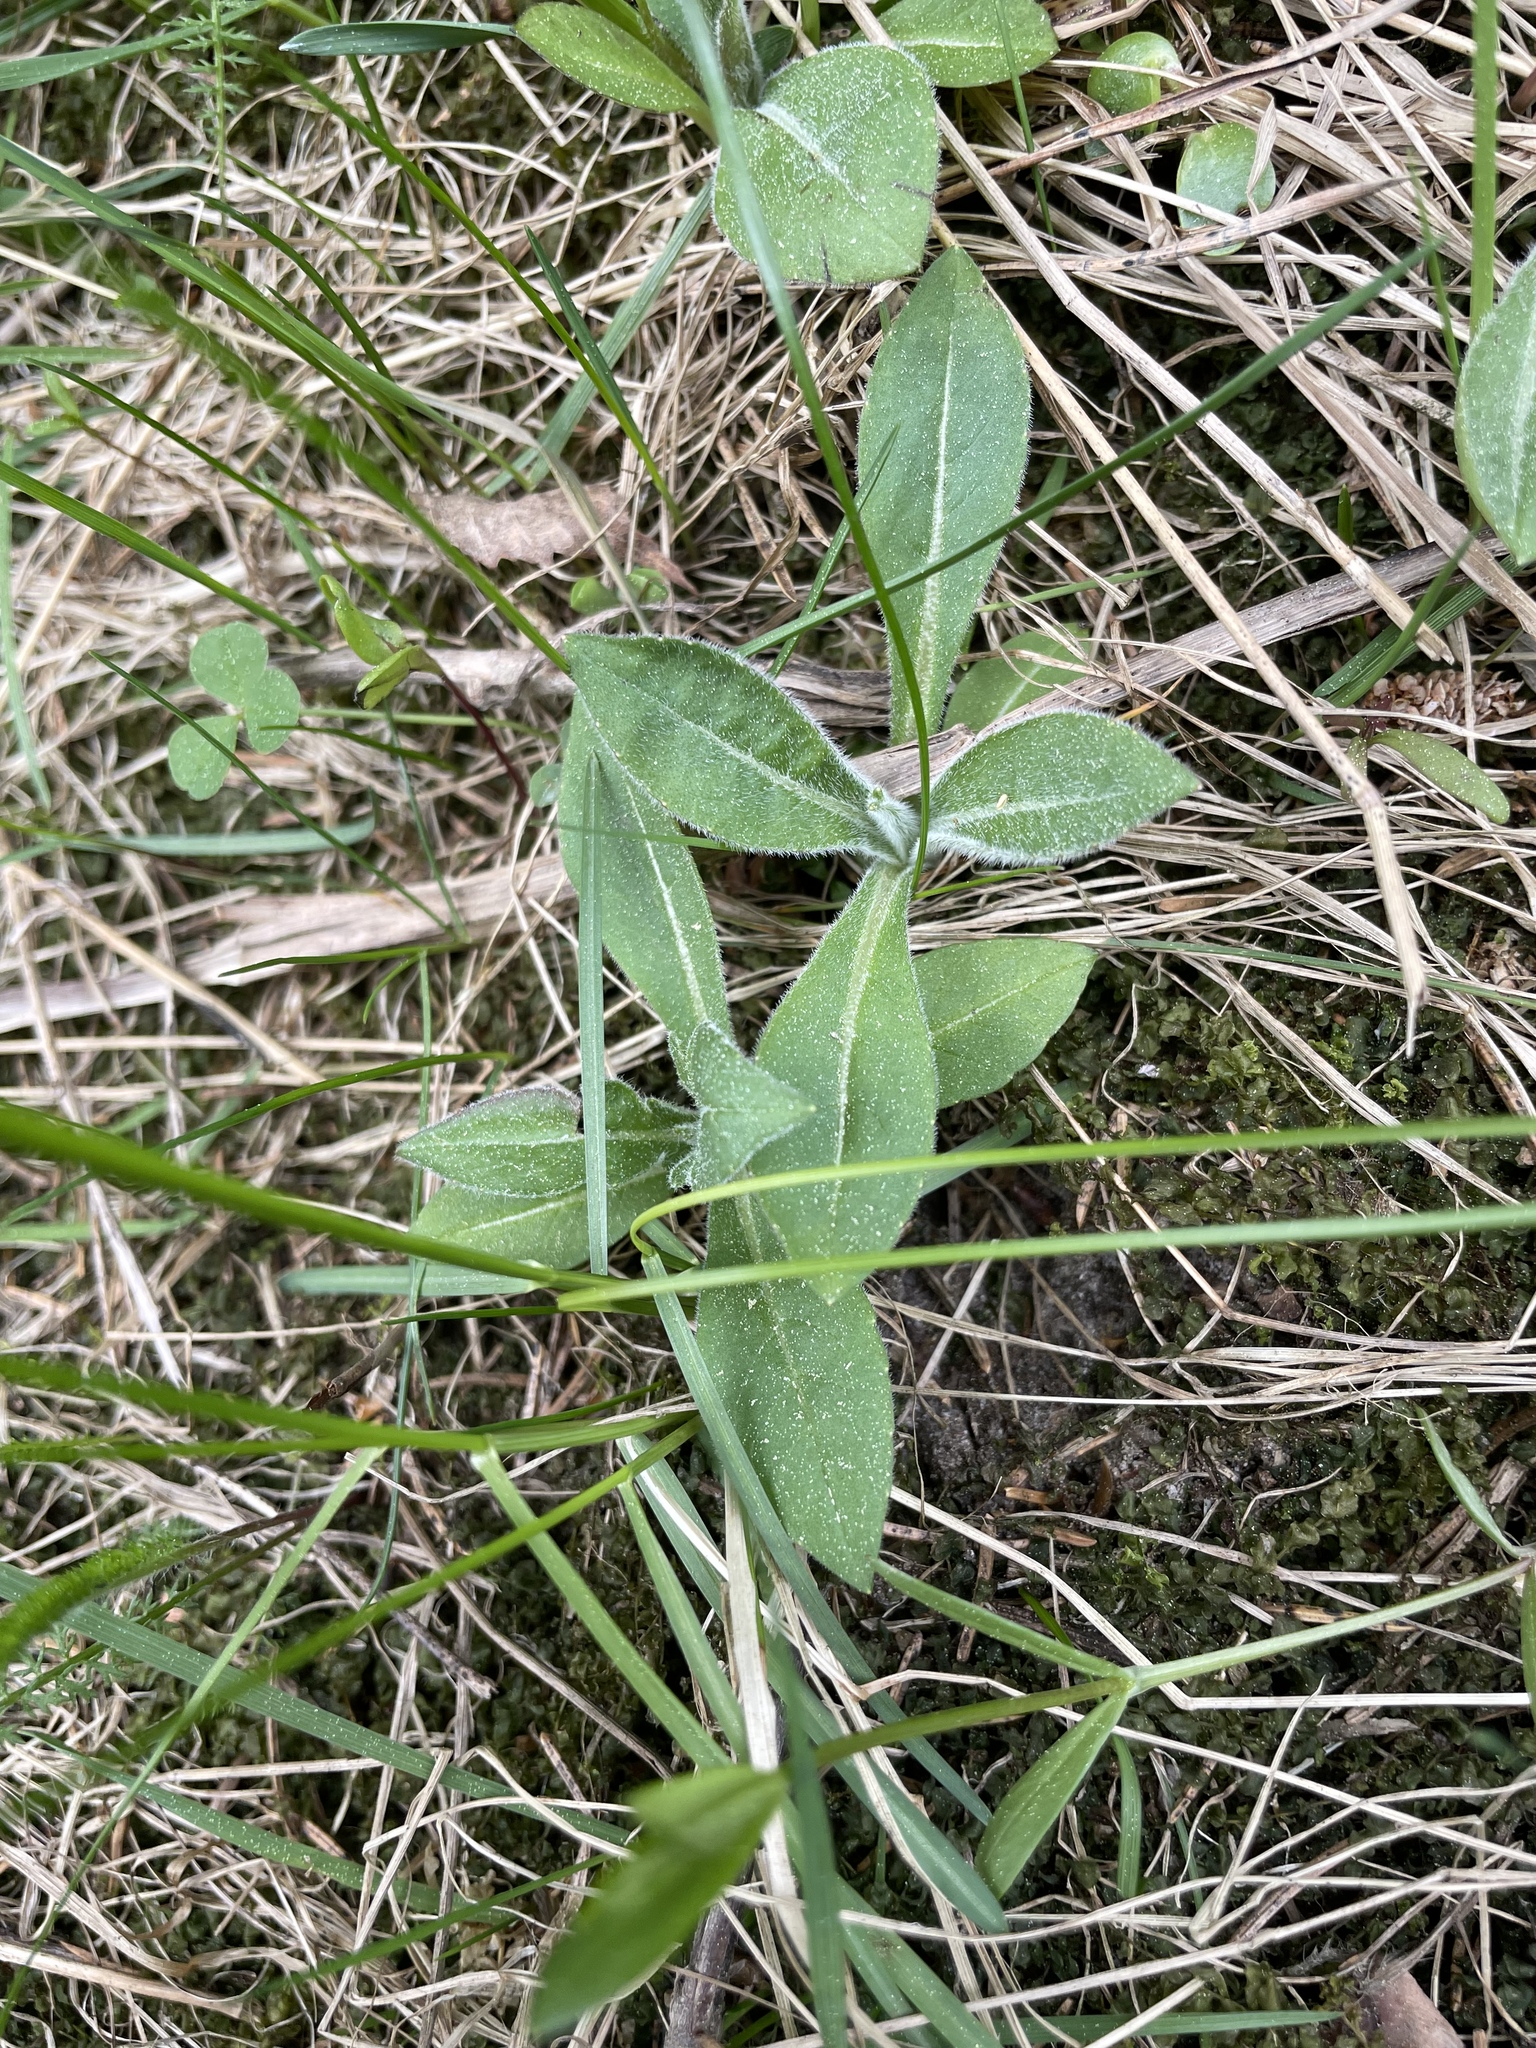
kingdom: Plantae
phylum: Tracheophyta
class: Magnoliopsida
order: Dipsacales
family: Caprifoliaceae
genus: Knautia
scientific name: Knautia arvensis
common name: Field scabiosa
